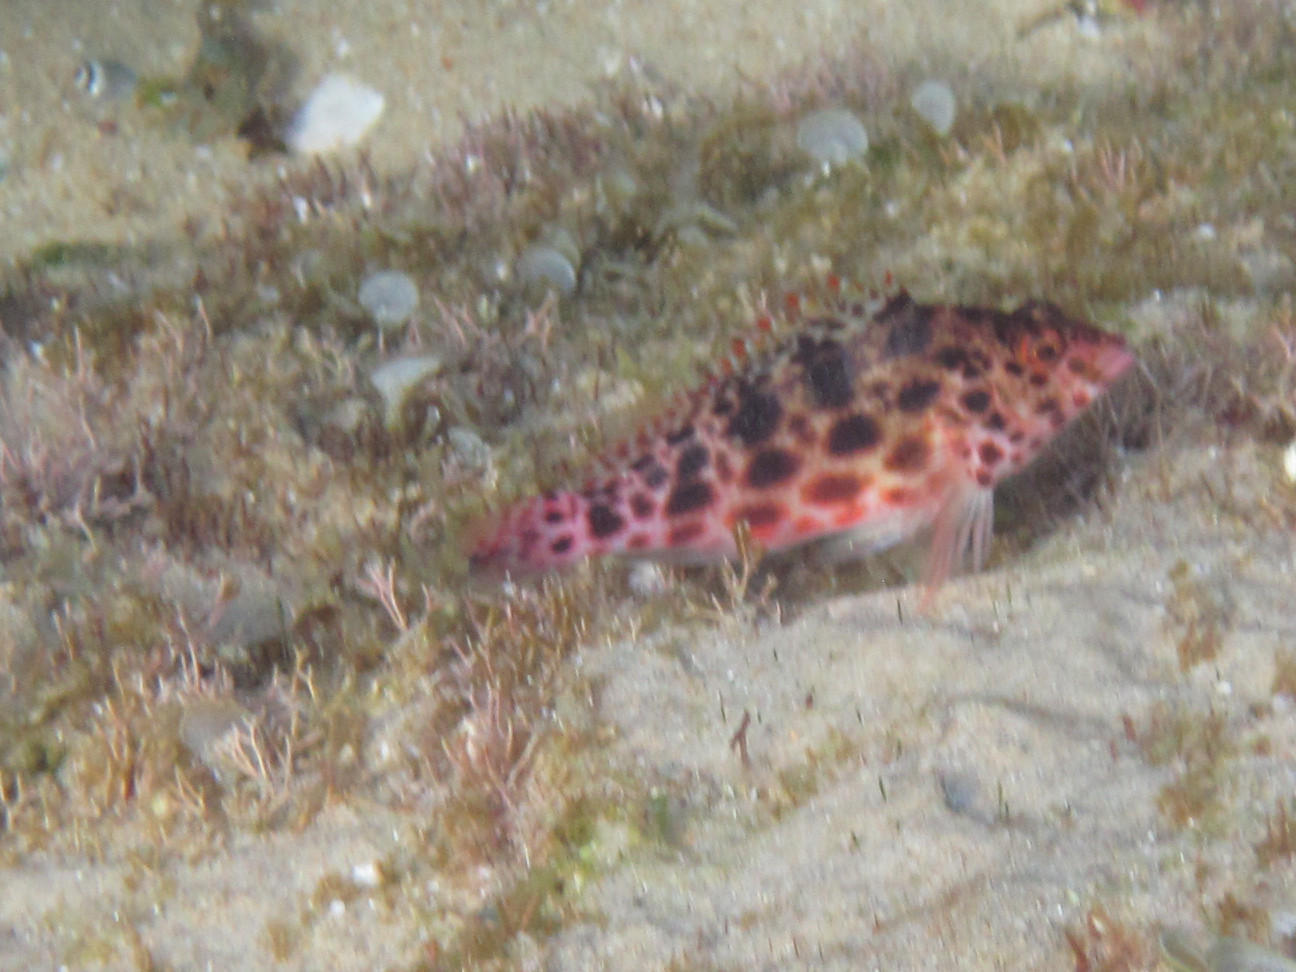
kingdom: Animalia
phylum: Chordata
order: Perciformes
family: Cirrhitidae
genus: Cirrhitichthys
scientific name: Cirrhitichthys oxycephalus
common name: Spotted hawkfish
